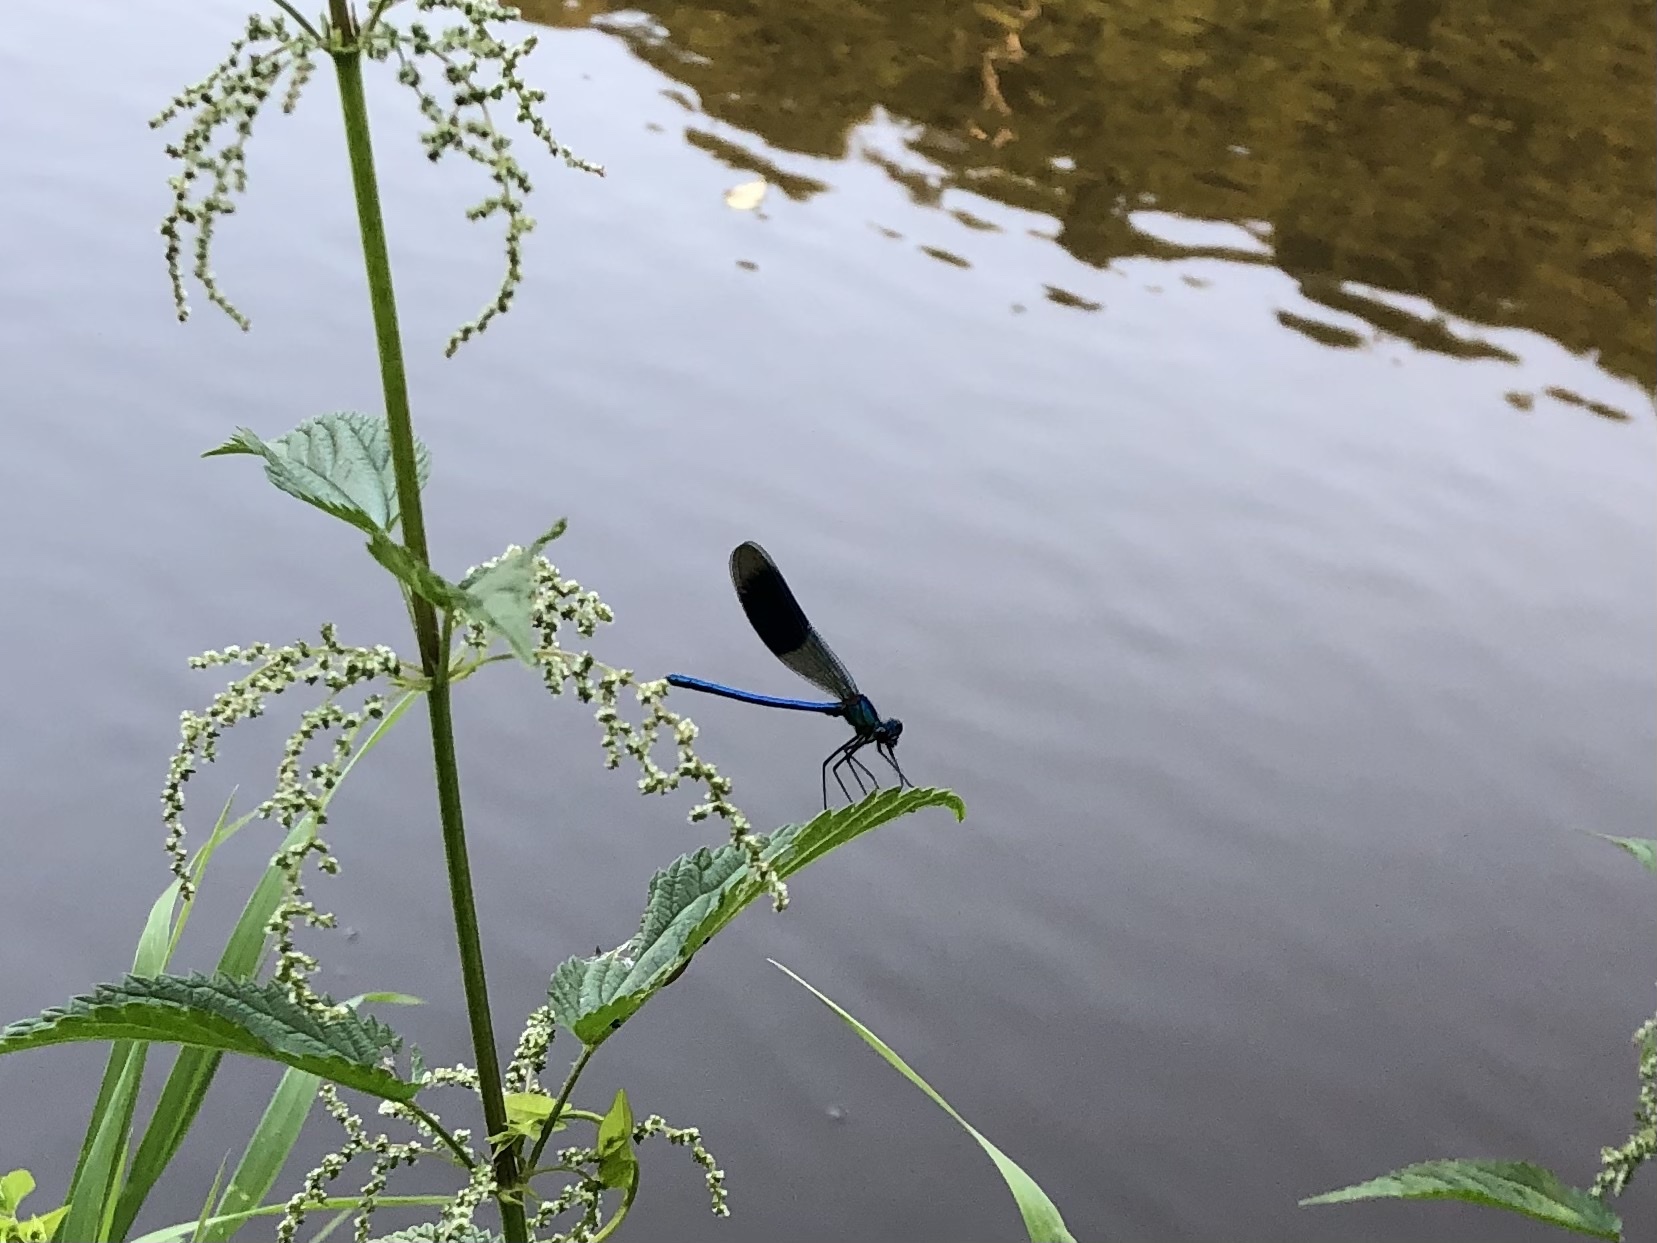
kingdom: Animalia
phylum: Arthropoda
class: Insecta
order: Odonata
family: Calopterygidae
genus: Calopteryx
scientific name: Calopteryx splendens
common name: Banded demoiselle
